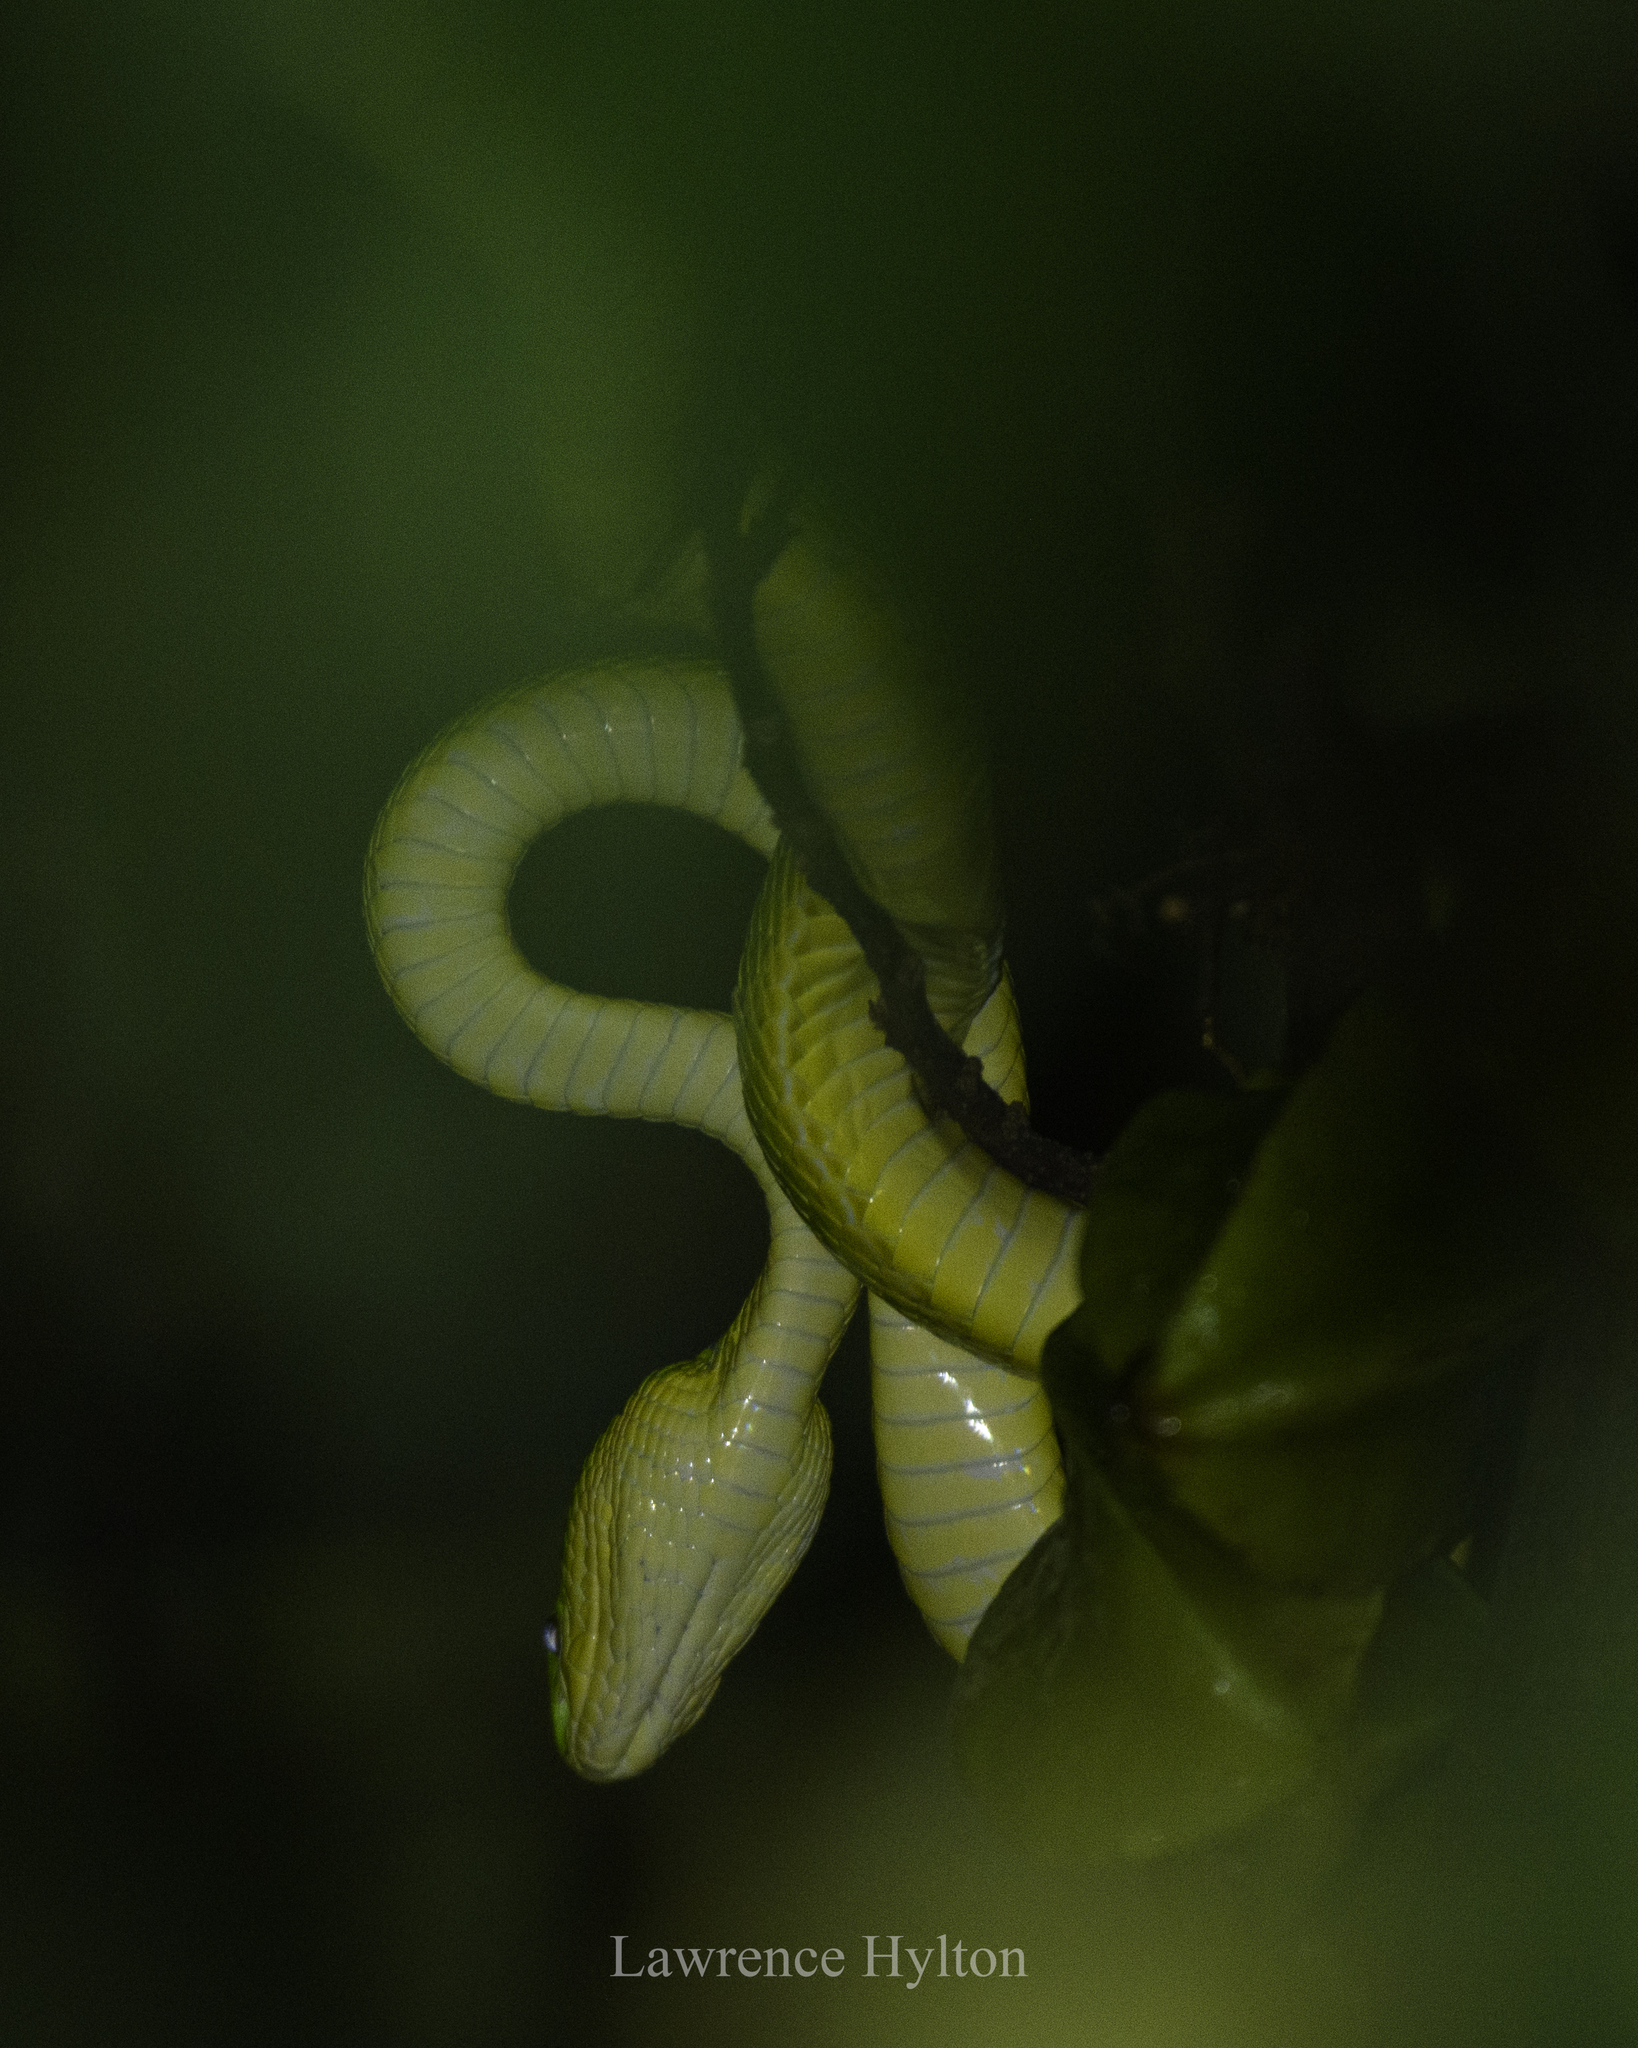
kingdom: Animalia
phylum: Chordata
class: Squamata
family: Viperidae
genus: Trimeresurus
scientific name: Trimeresurus albolabris
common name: White-lipped pitviper
